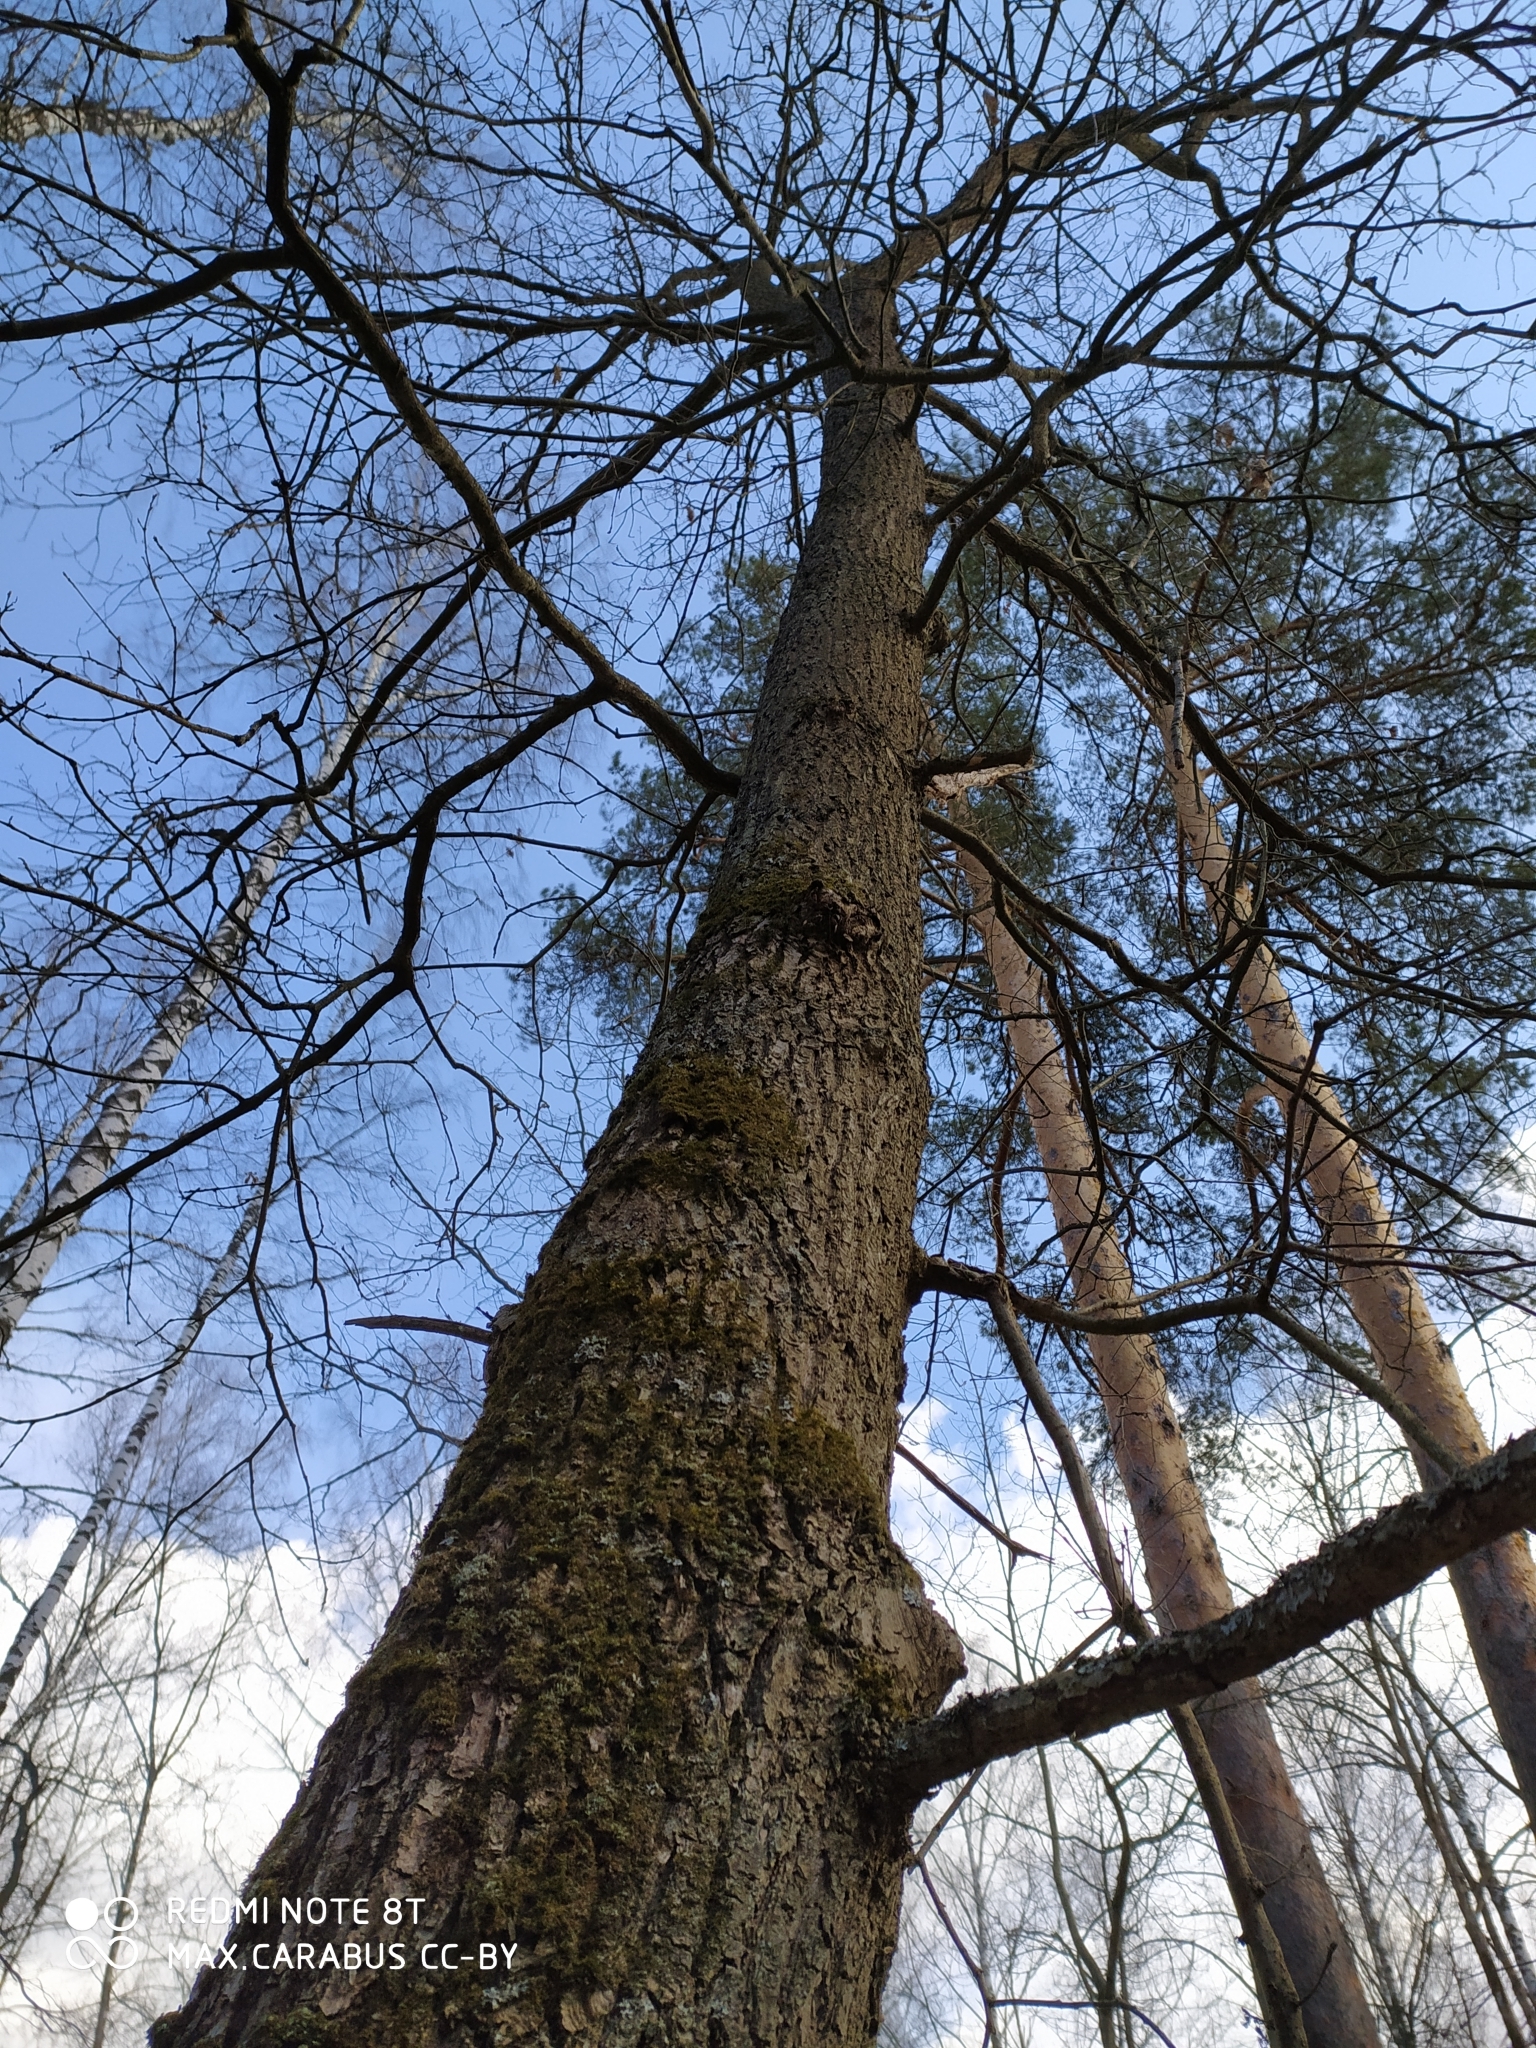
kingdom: Plantae
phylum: Tracheophyta
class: Magnoliopsida
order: Fagales
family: Fagaceae
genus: Quercus
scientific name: Quercus robur
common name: Pedunculate oak
